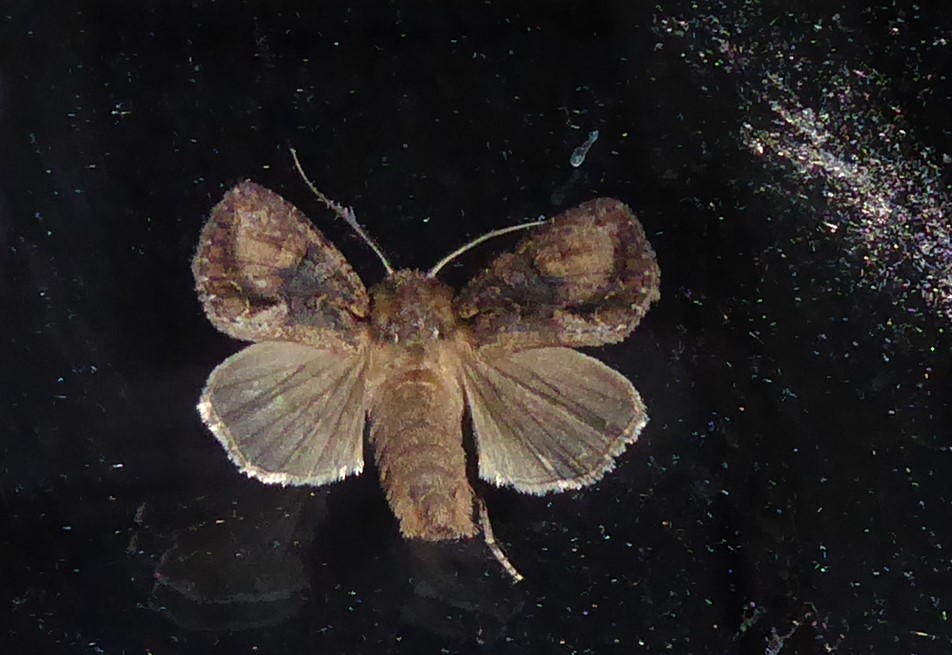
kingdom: Animalia
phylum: Arthropoda
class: Insecta
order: Lepidoptera
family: Noctuidae
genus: Ichneutica
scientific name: Ichneutica mutans
